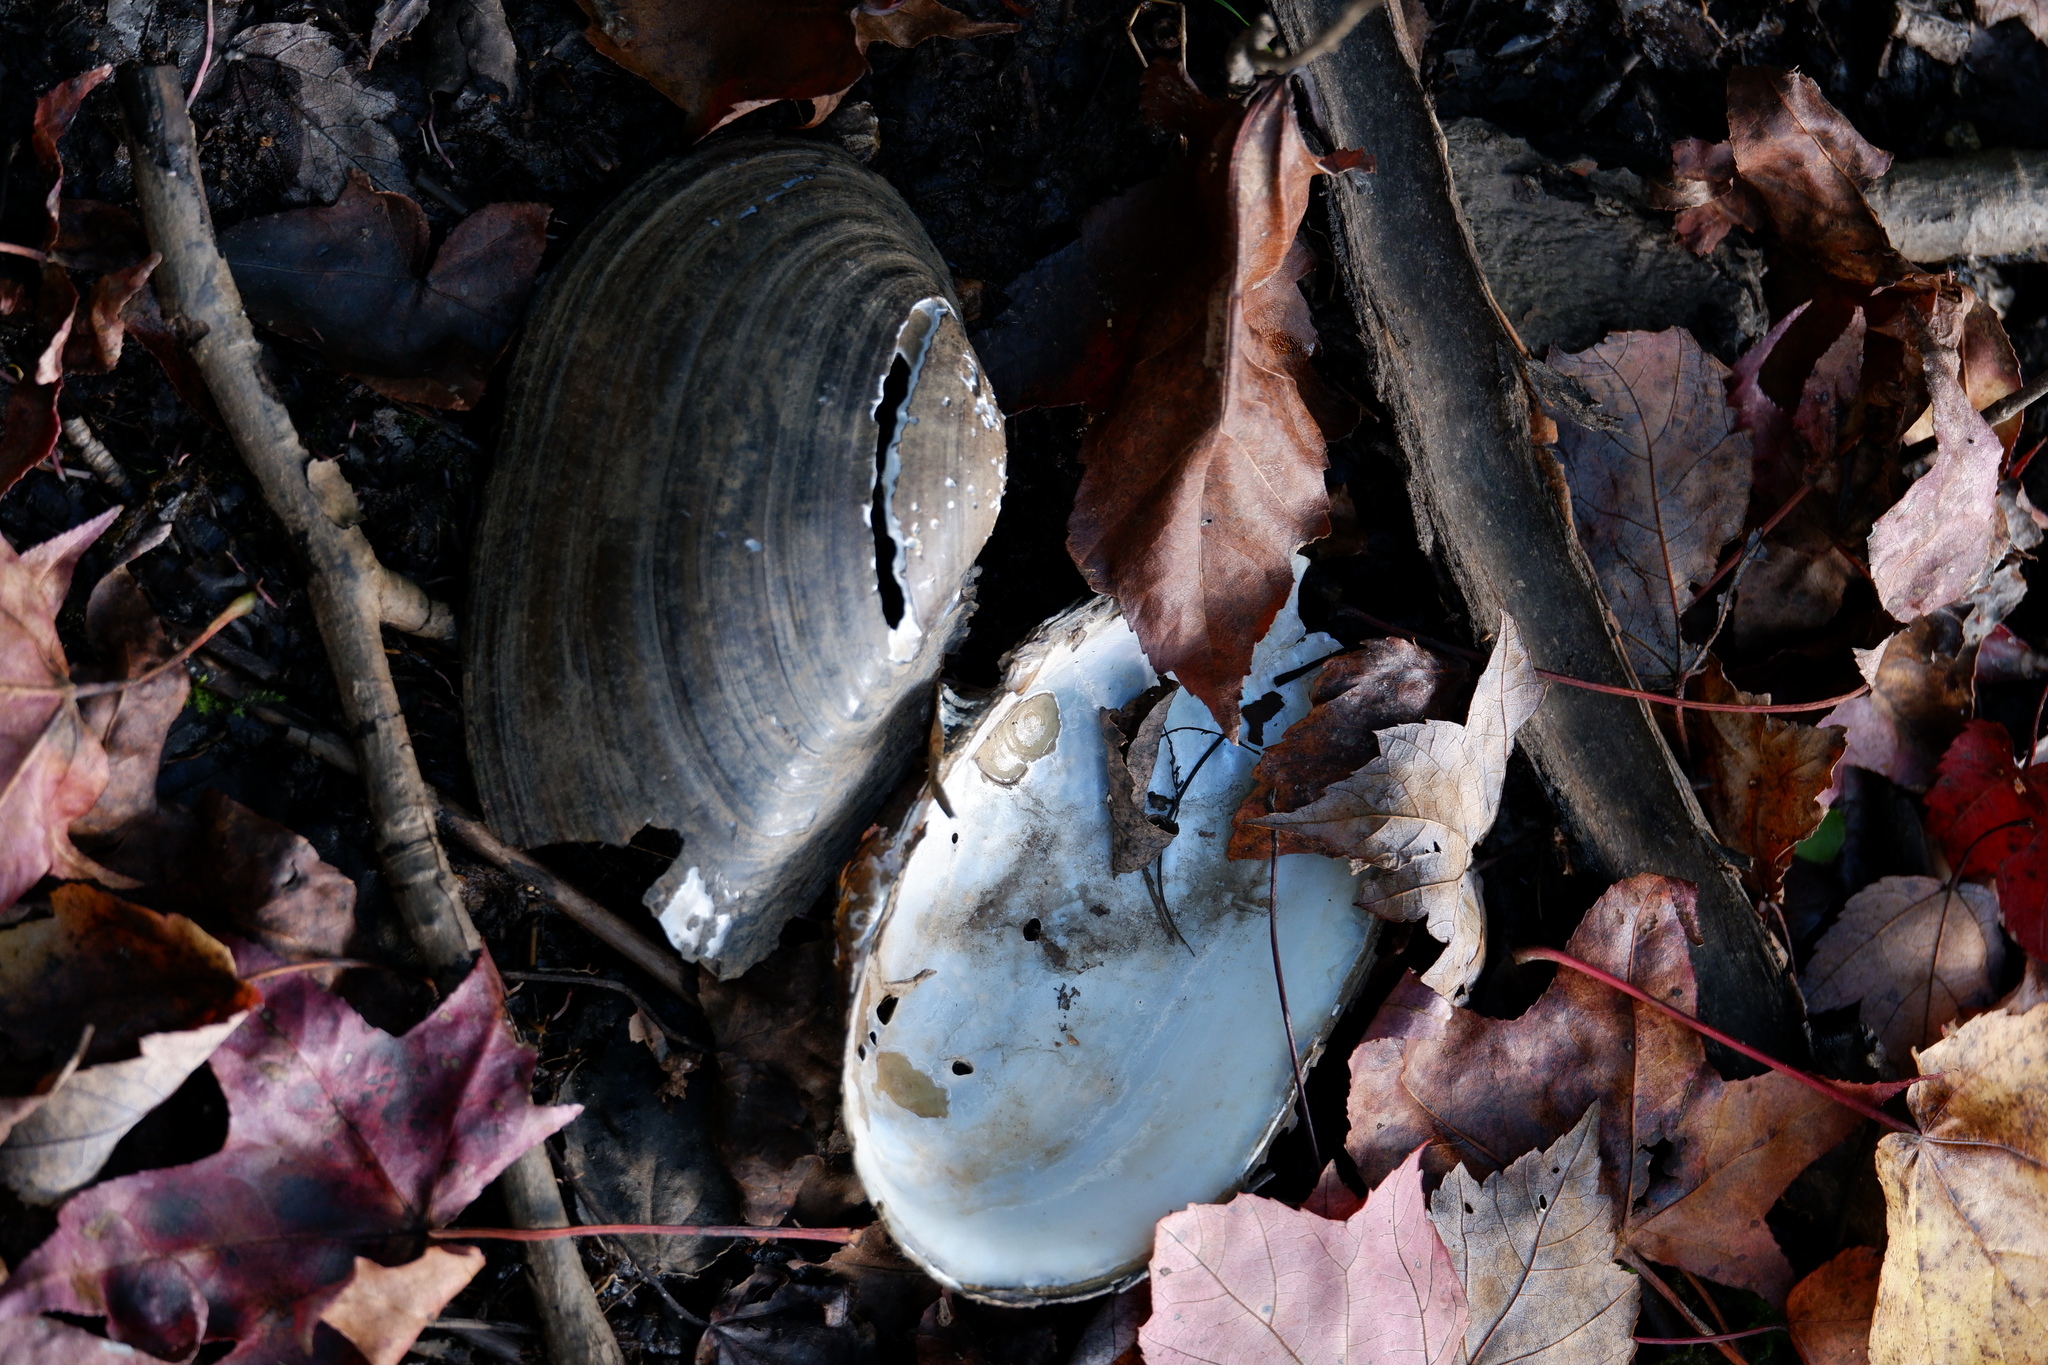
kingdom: Animalia
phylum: Mollusca
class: Bivalvia
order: Unionida
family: Unionidae
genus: Pyganodon
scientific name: Pyganodon cataracta
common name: Eastern floater
